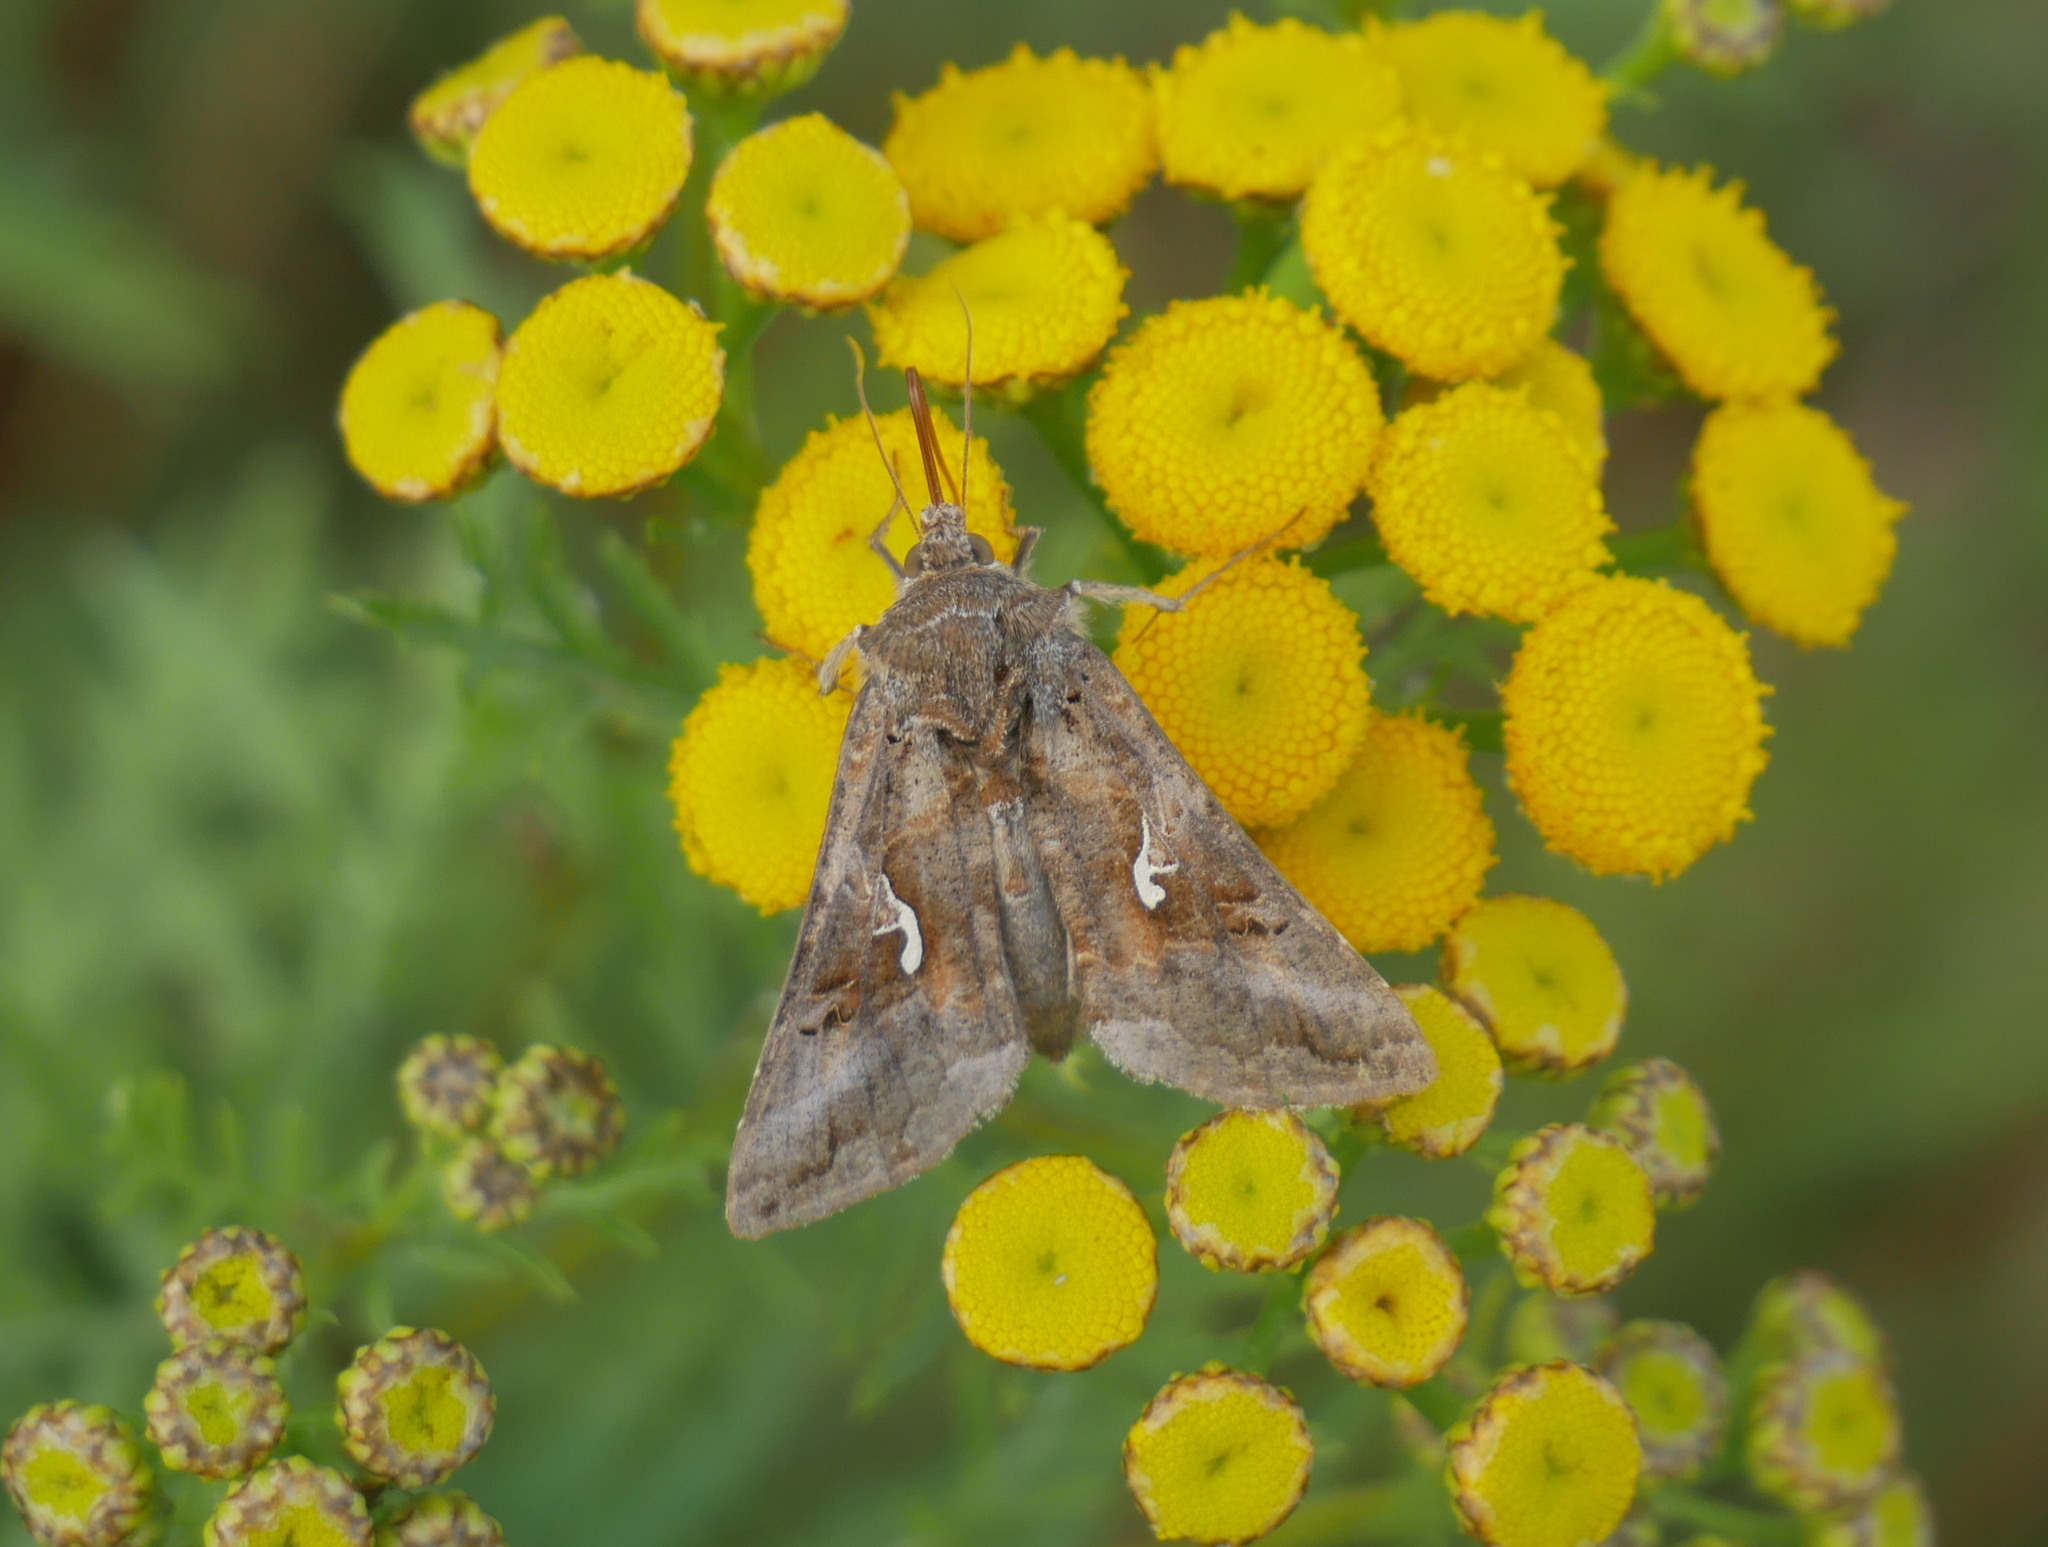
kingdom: Animalia
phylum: Arthropoda
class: Insecta
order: Lepidoptera
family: Noctuidae
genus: Autographa
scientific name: Autographa gamma
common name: Silver y
